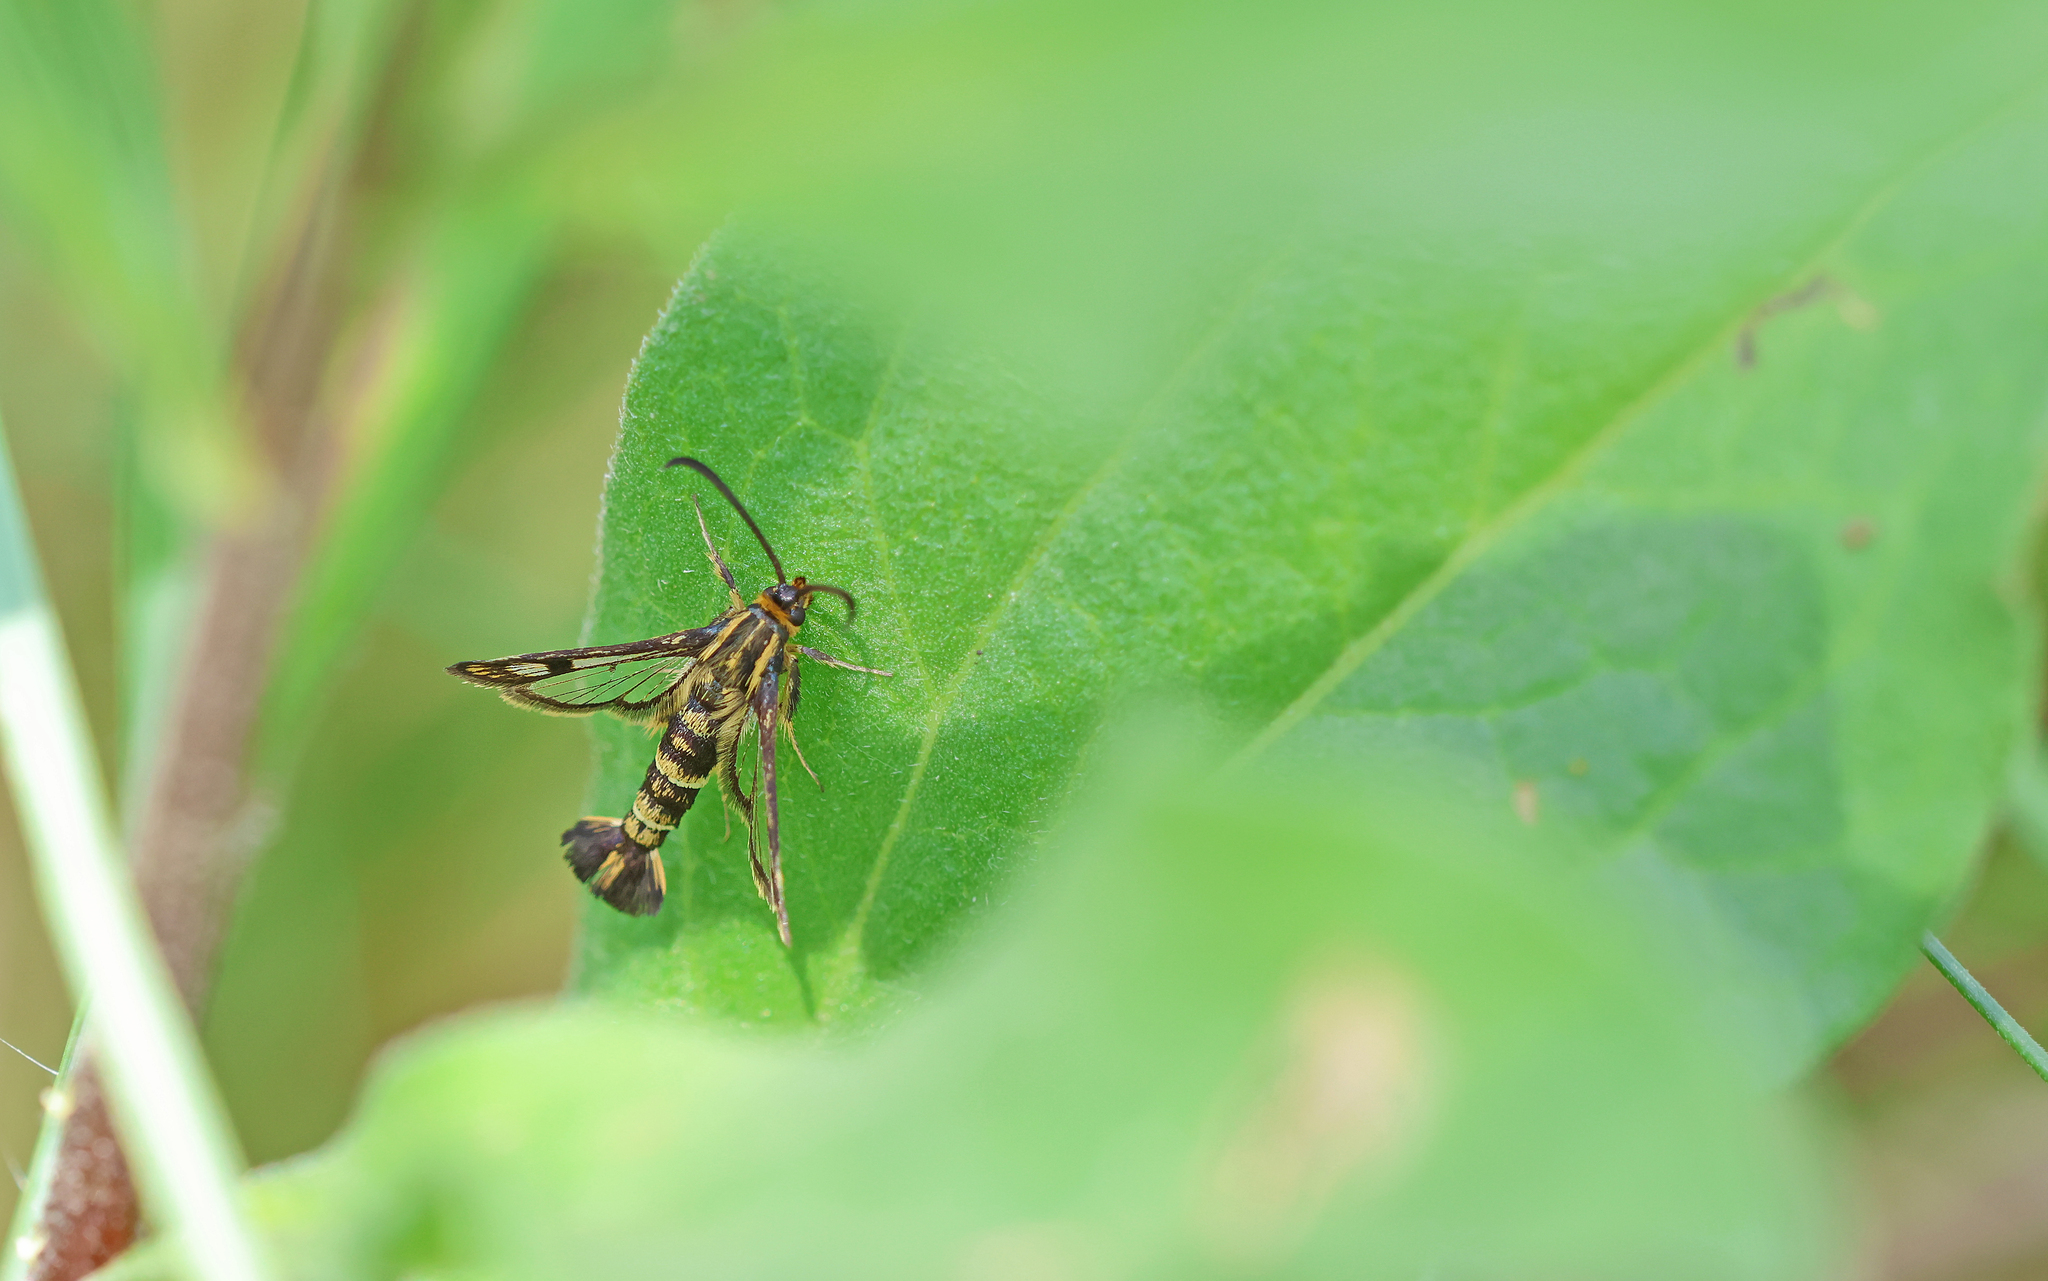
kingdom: Animalia
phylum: Arthropoda
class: Insecta
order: Lepidoptera
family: Sesiidae
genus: Chamaesphecia
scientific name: Chamaesphecia empiformis
